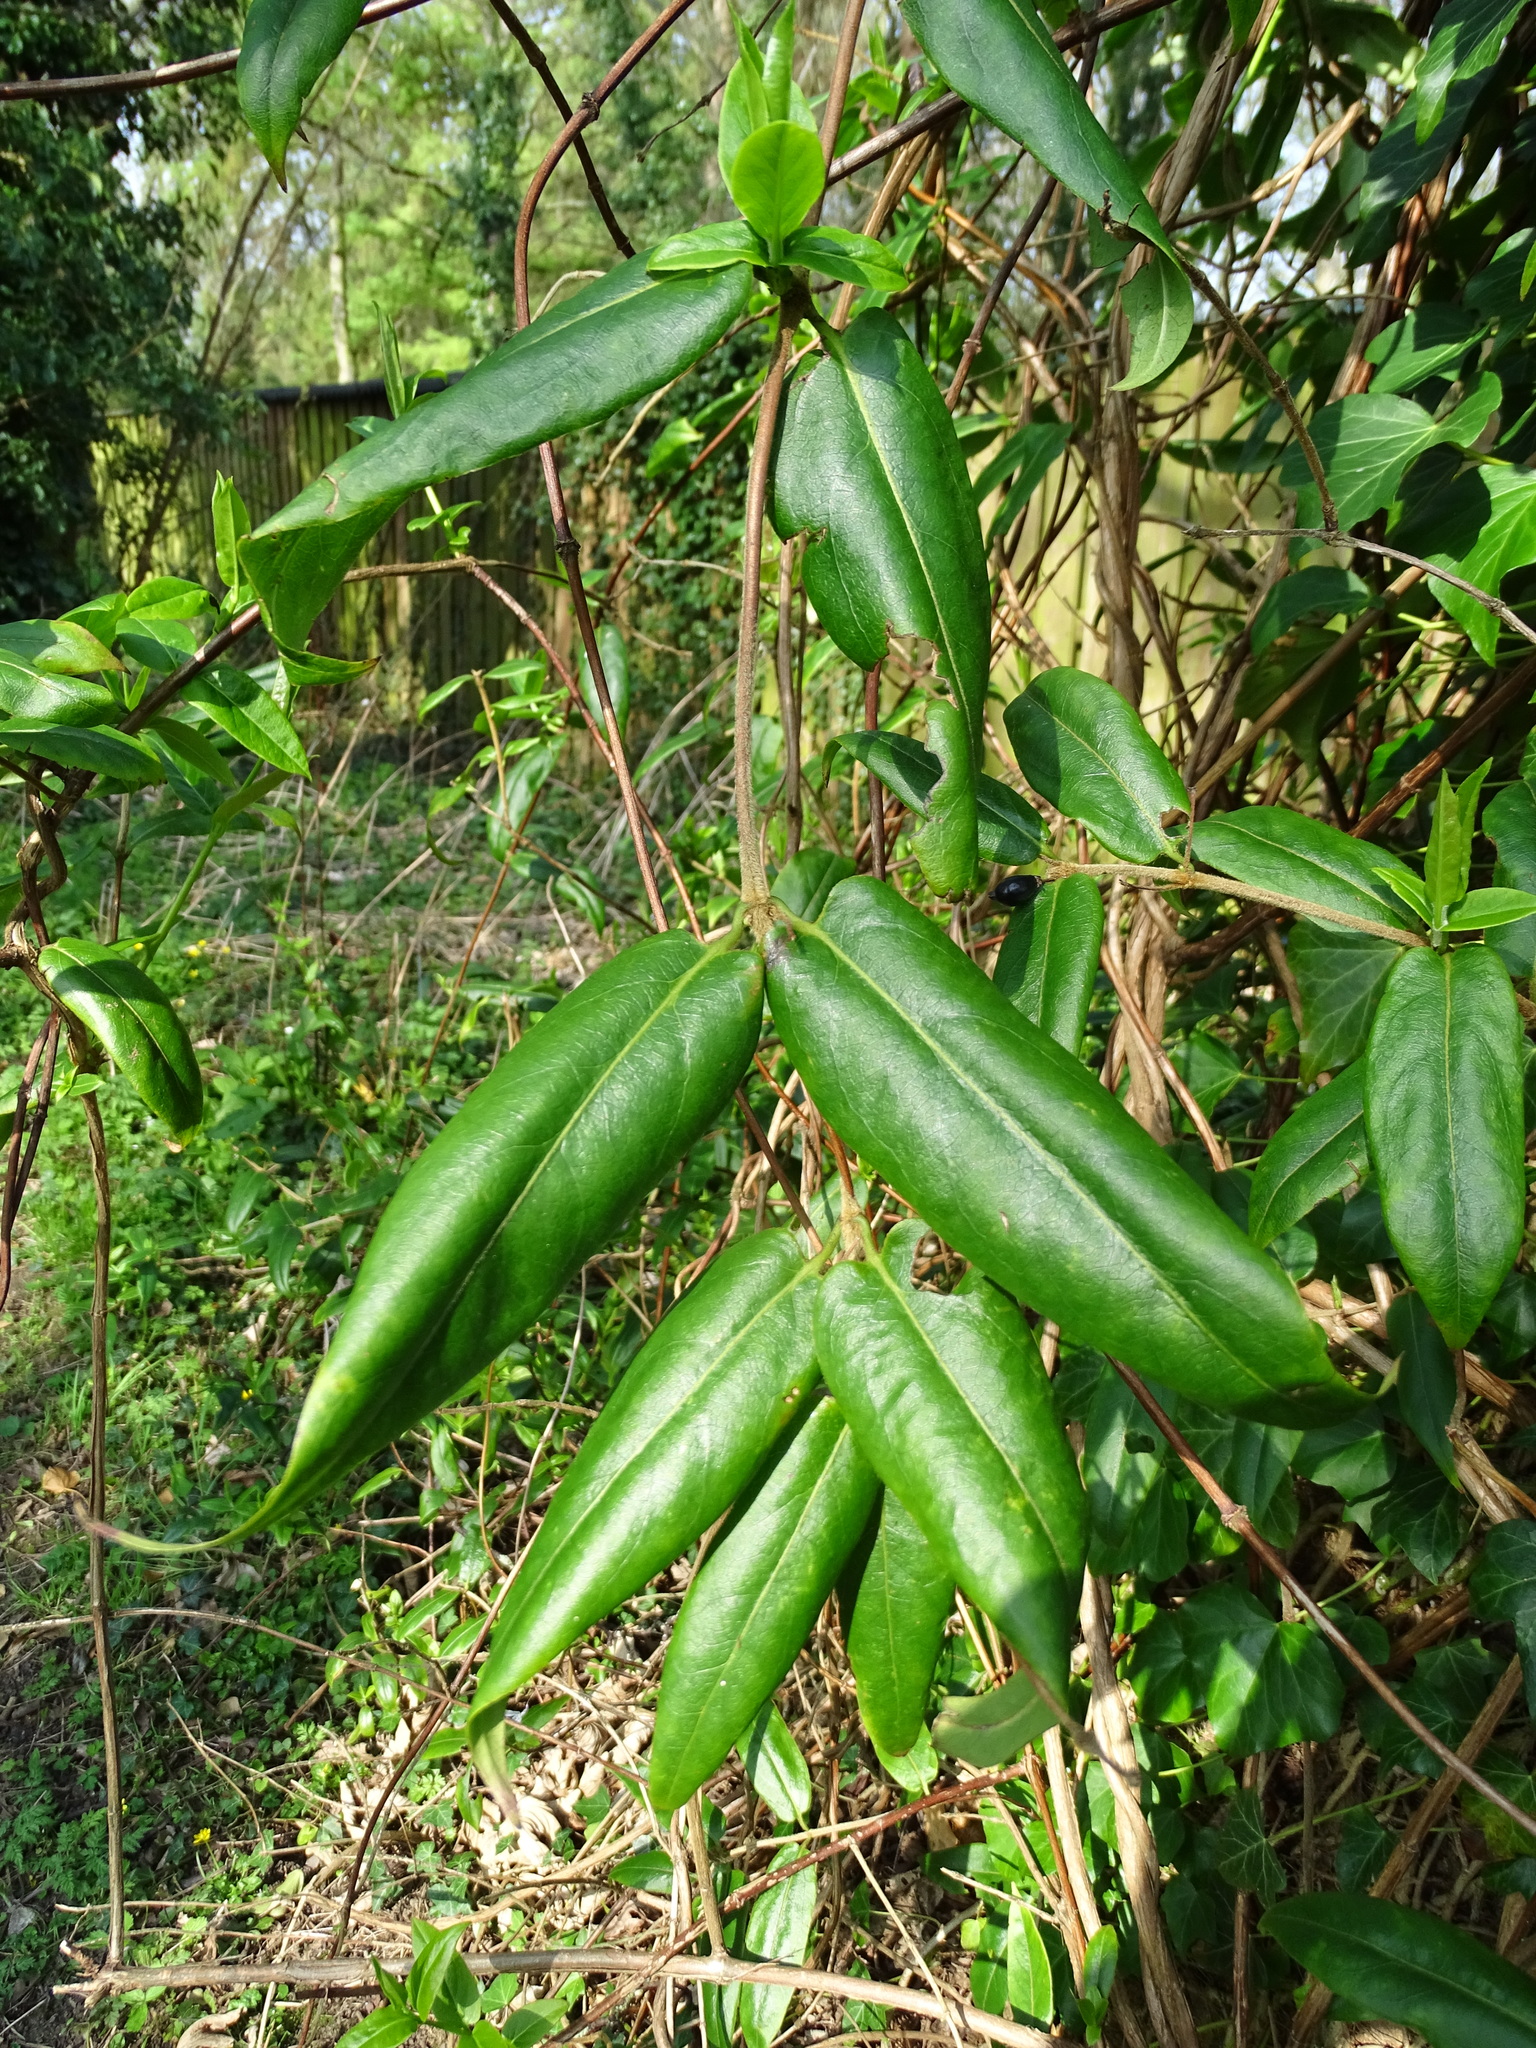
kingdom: Plantae
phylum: Tracheophyta
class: Magnoliopsida
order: Dipsacales
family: Caprifoliaceae
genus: Lonicera
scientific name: Lonicera acuminata
